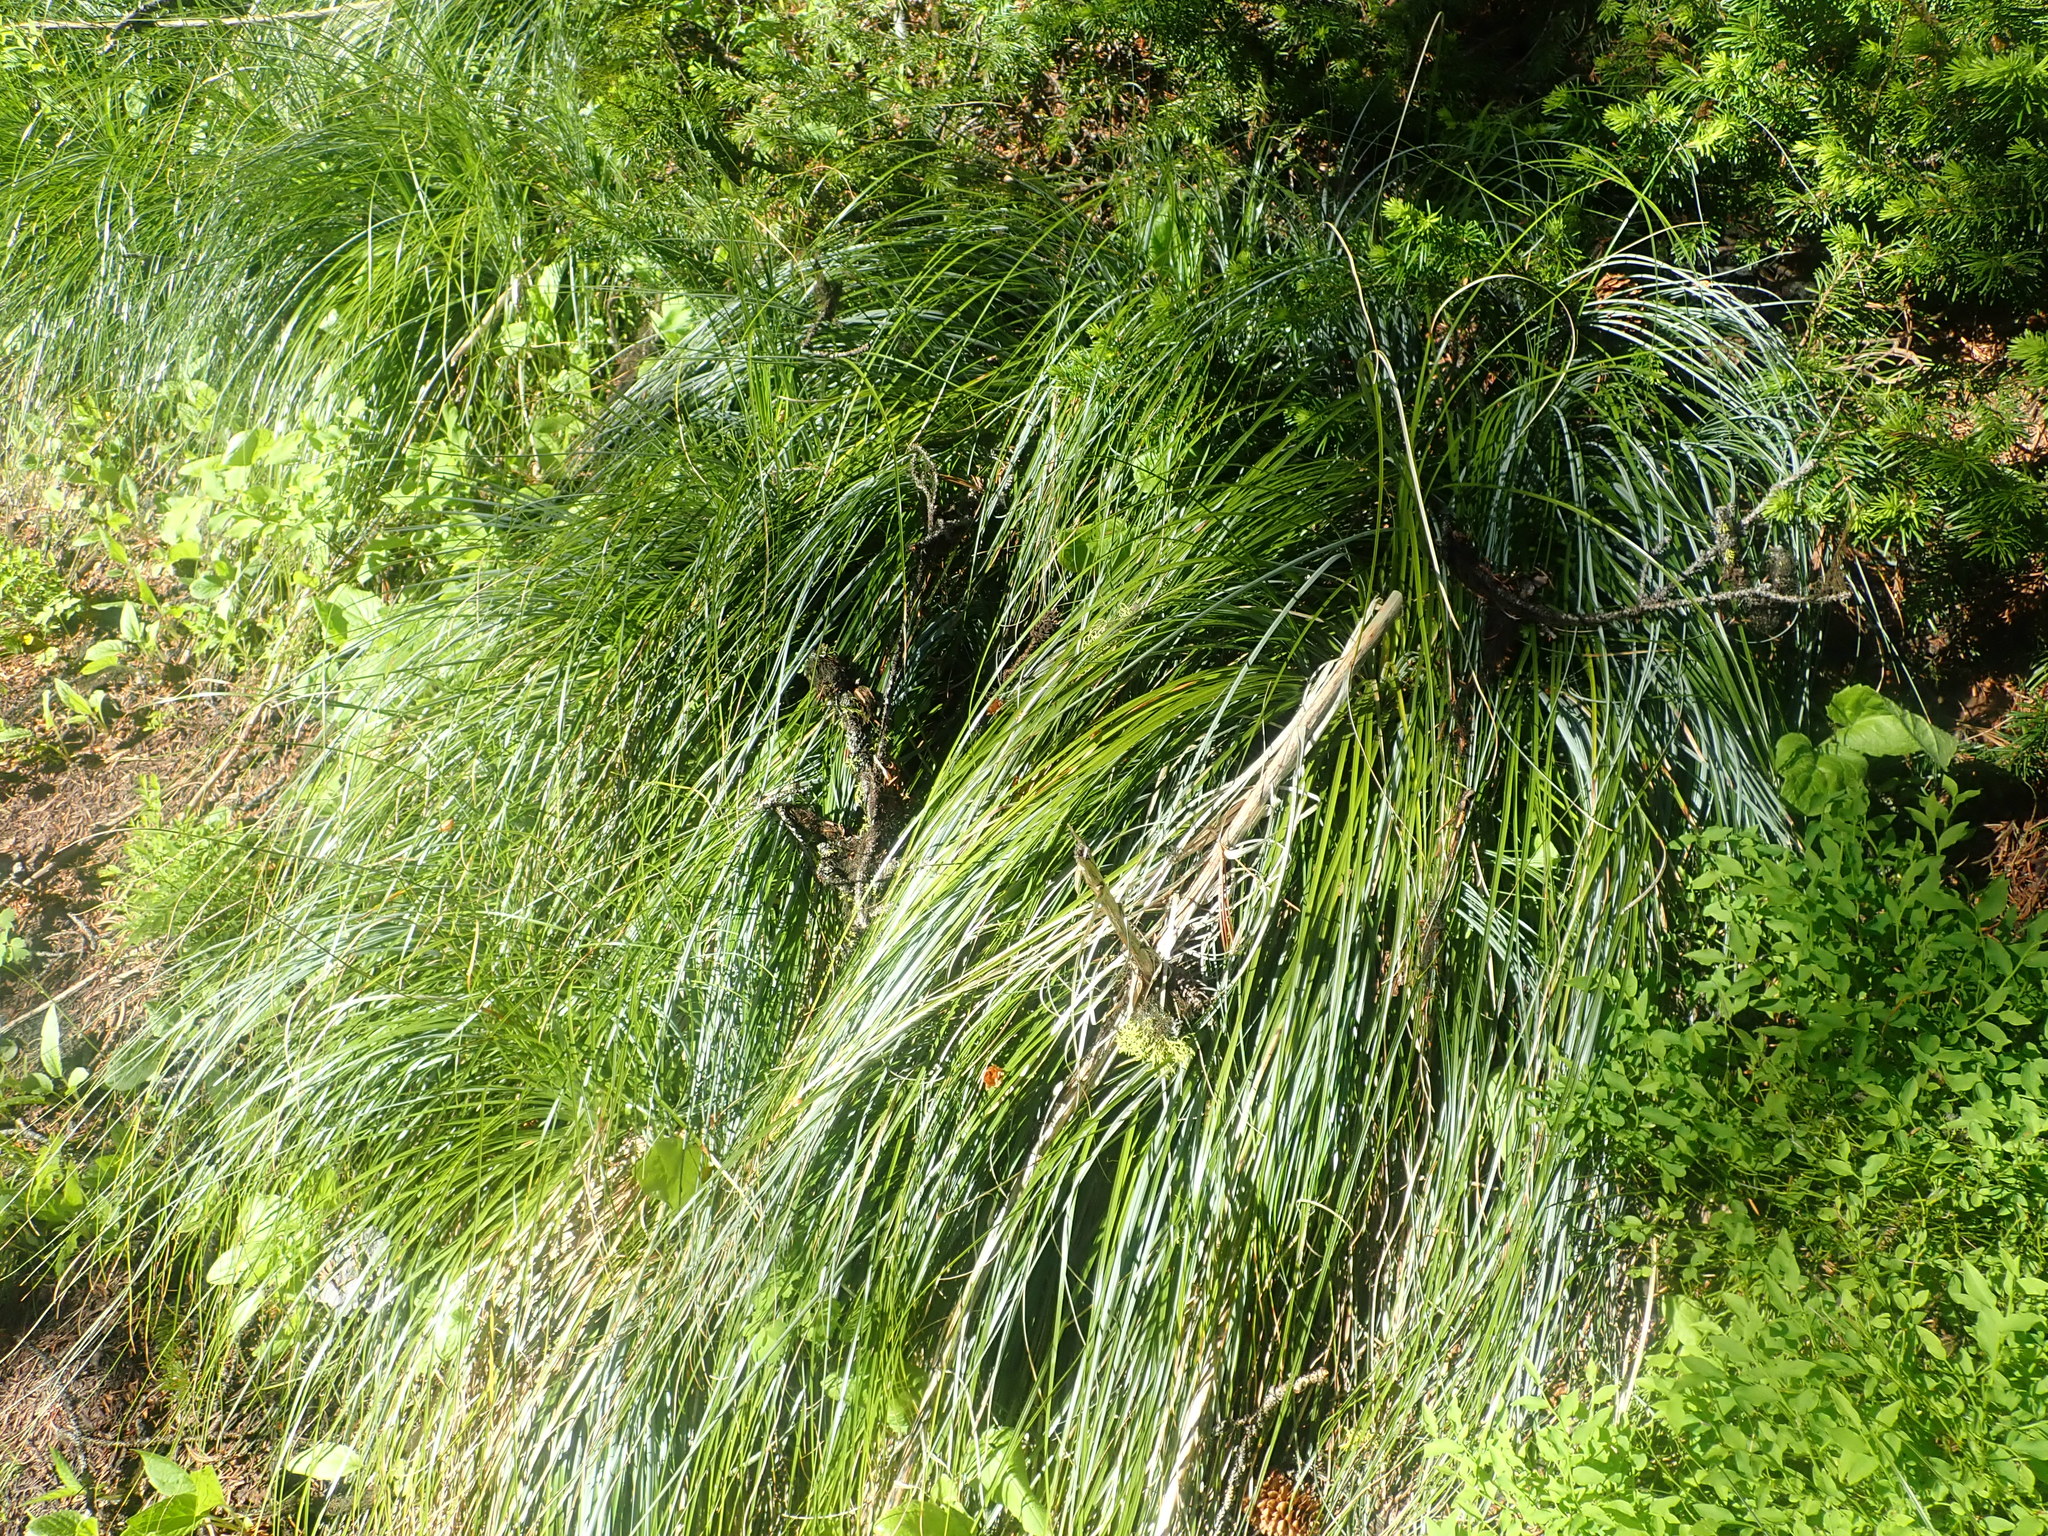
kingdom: Plantae
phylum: Tracheophyta
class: Liliopsida
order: Liliales
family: Melanthiaceae
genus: Xerophyllum
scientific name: Xerophyllum tenax
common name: Bear-grass
